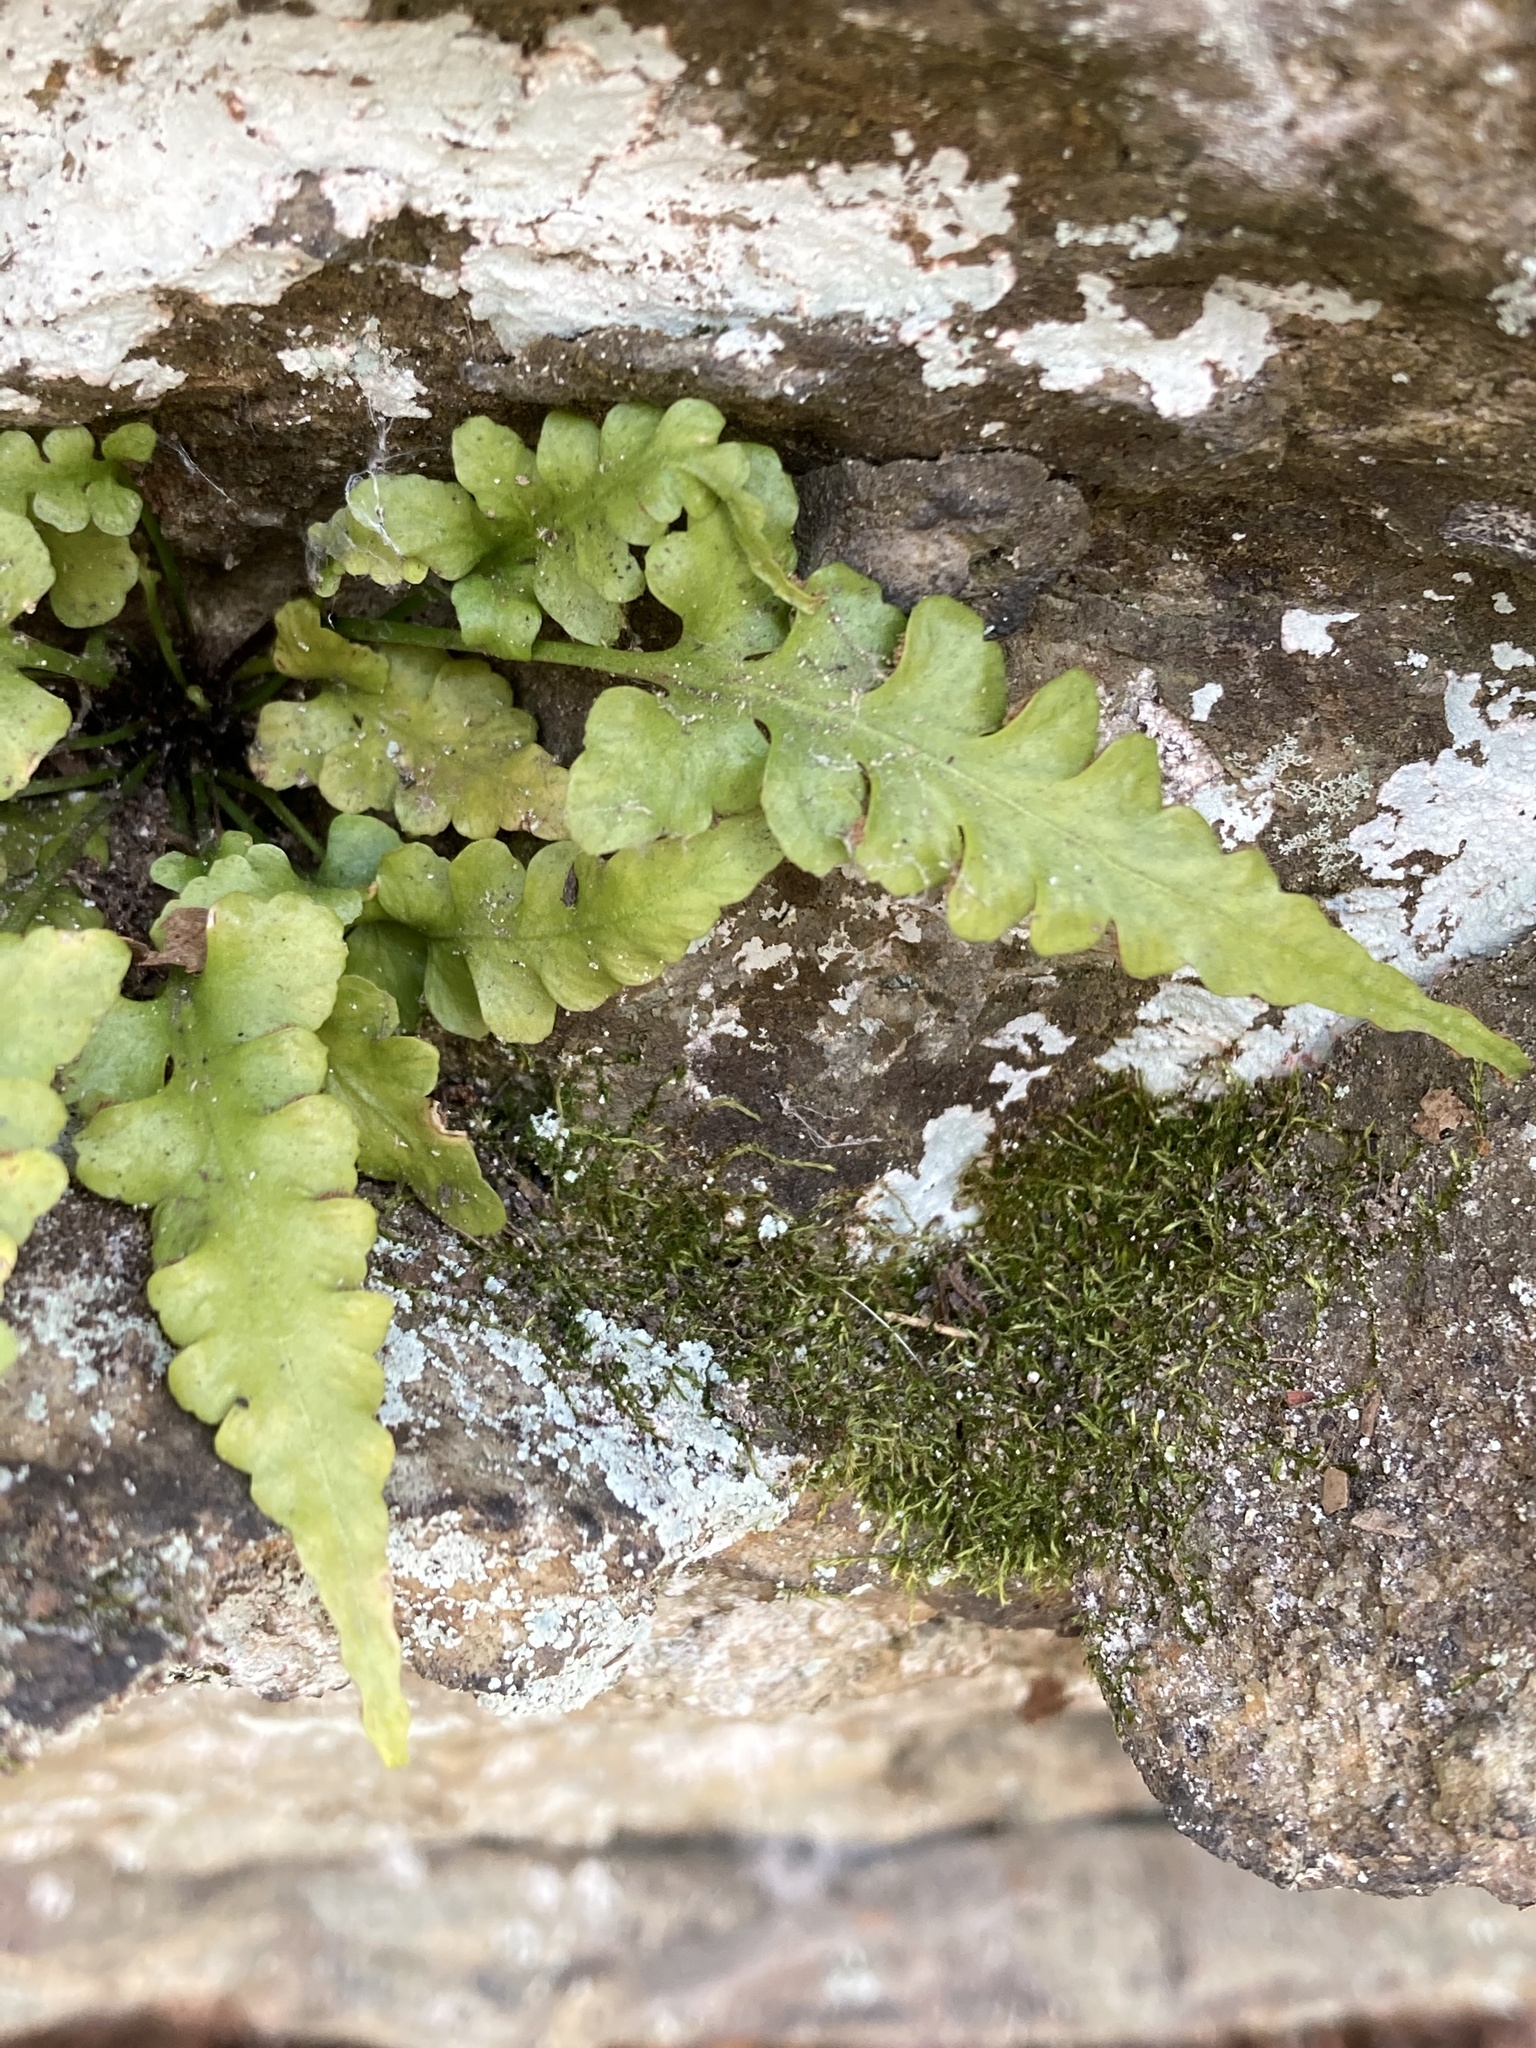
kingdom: Plantae
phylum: Tracheophyta
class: Polypodiopsida
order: Polypodiales
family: Aspleniaceae
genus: Asplenium
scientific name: Asplenium pinnatifidum
